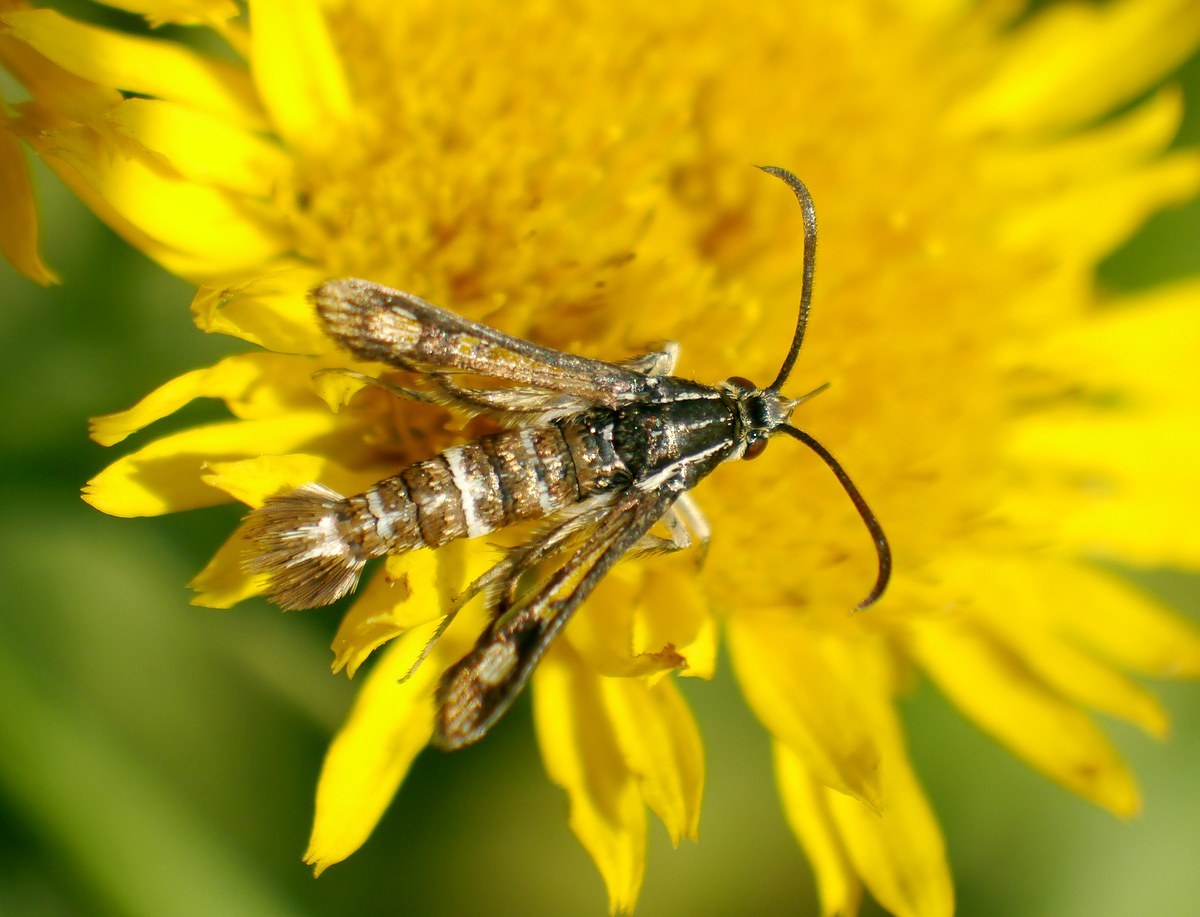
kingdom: Animalia
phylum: Arthropoda
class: Insecta
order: Lepidoptera
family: Sesiidae
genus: Chamaesphecia
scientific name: Chamaesphecia doleriformis
